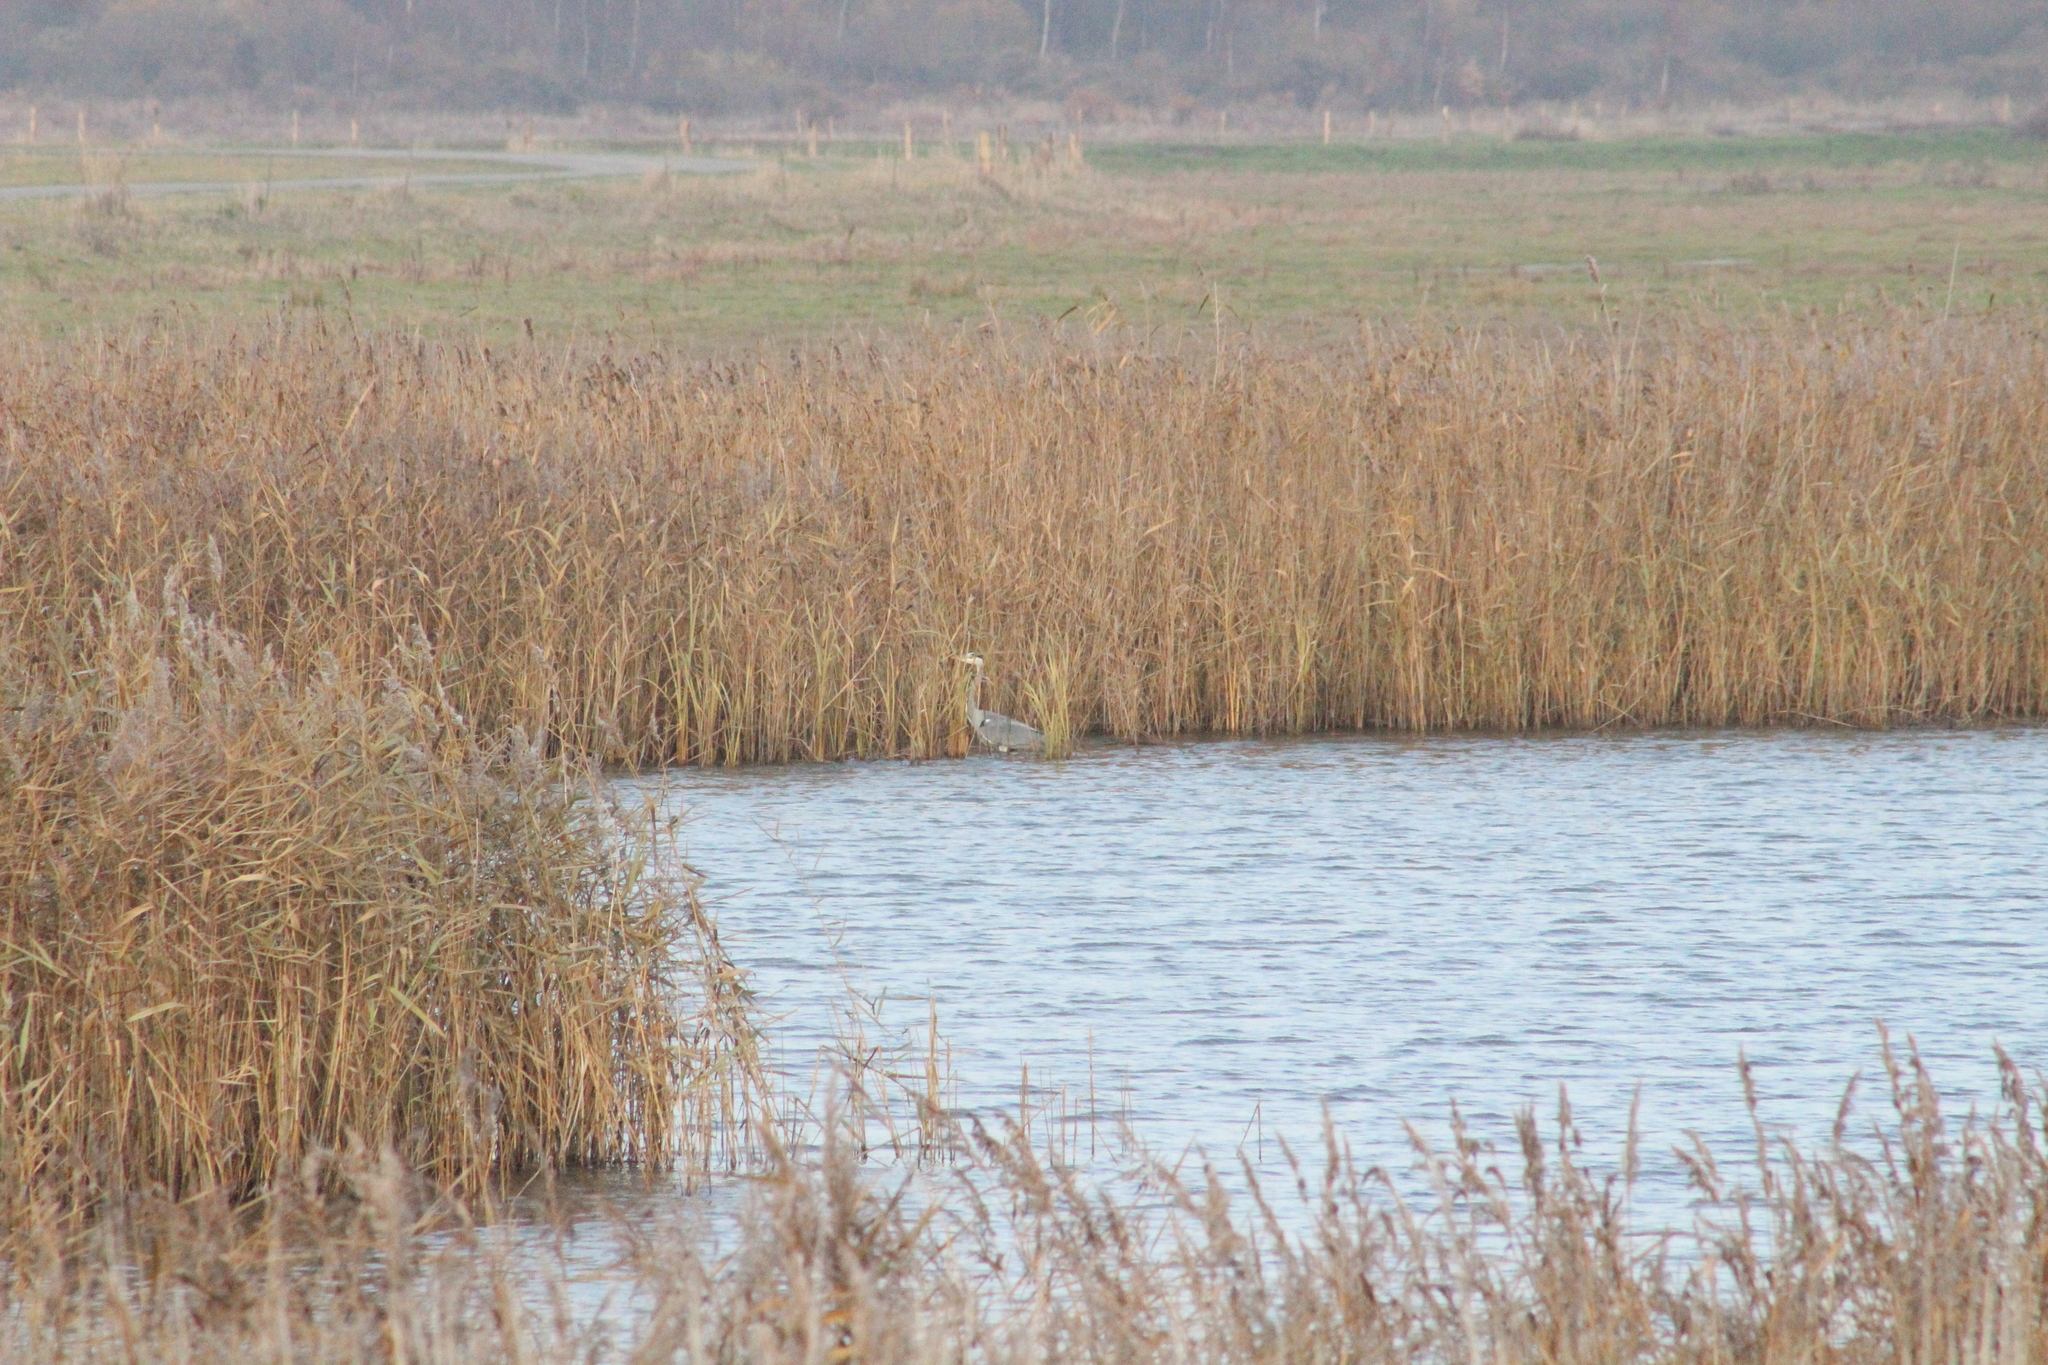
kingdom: Animalia
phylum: Chordata
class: Aves
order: Pelecaniformes
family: Ardeidae
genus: Ardea
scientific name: Ardea cinerea
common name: Grey heron
